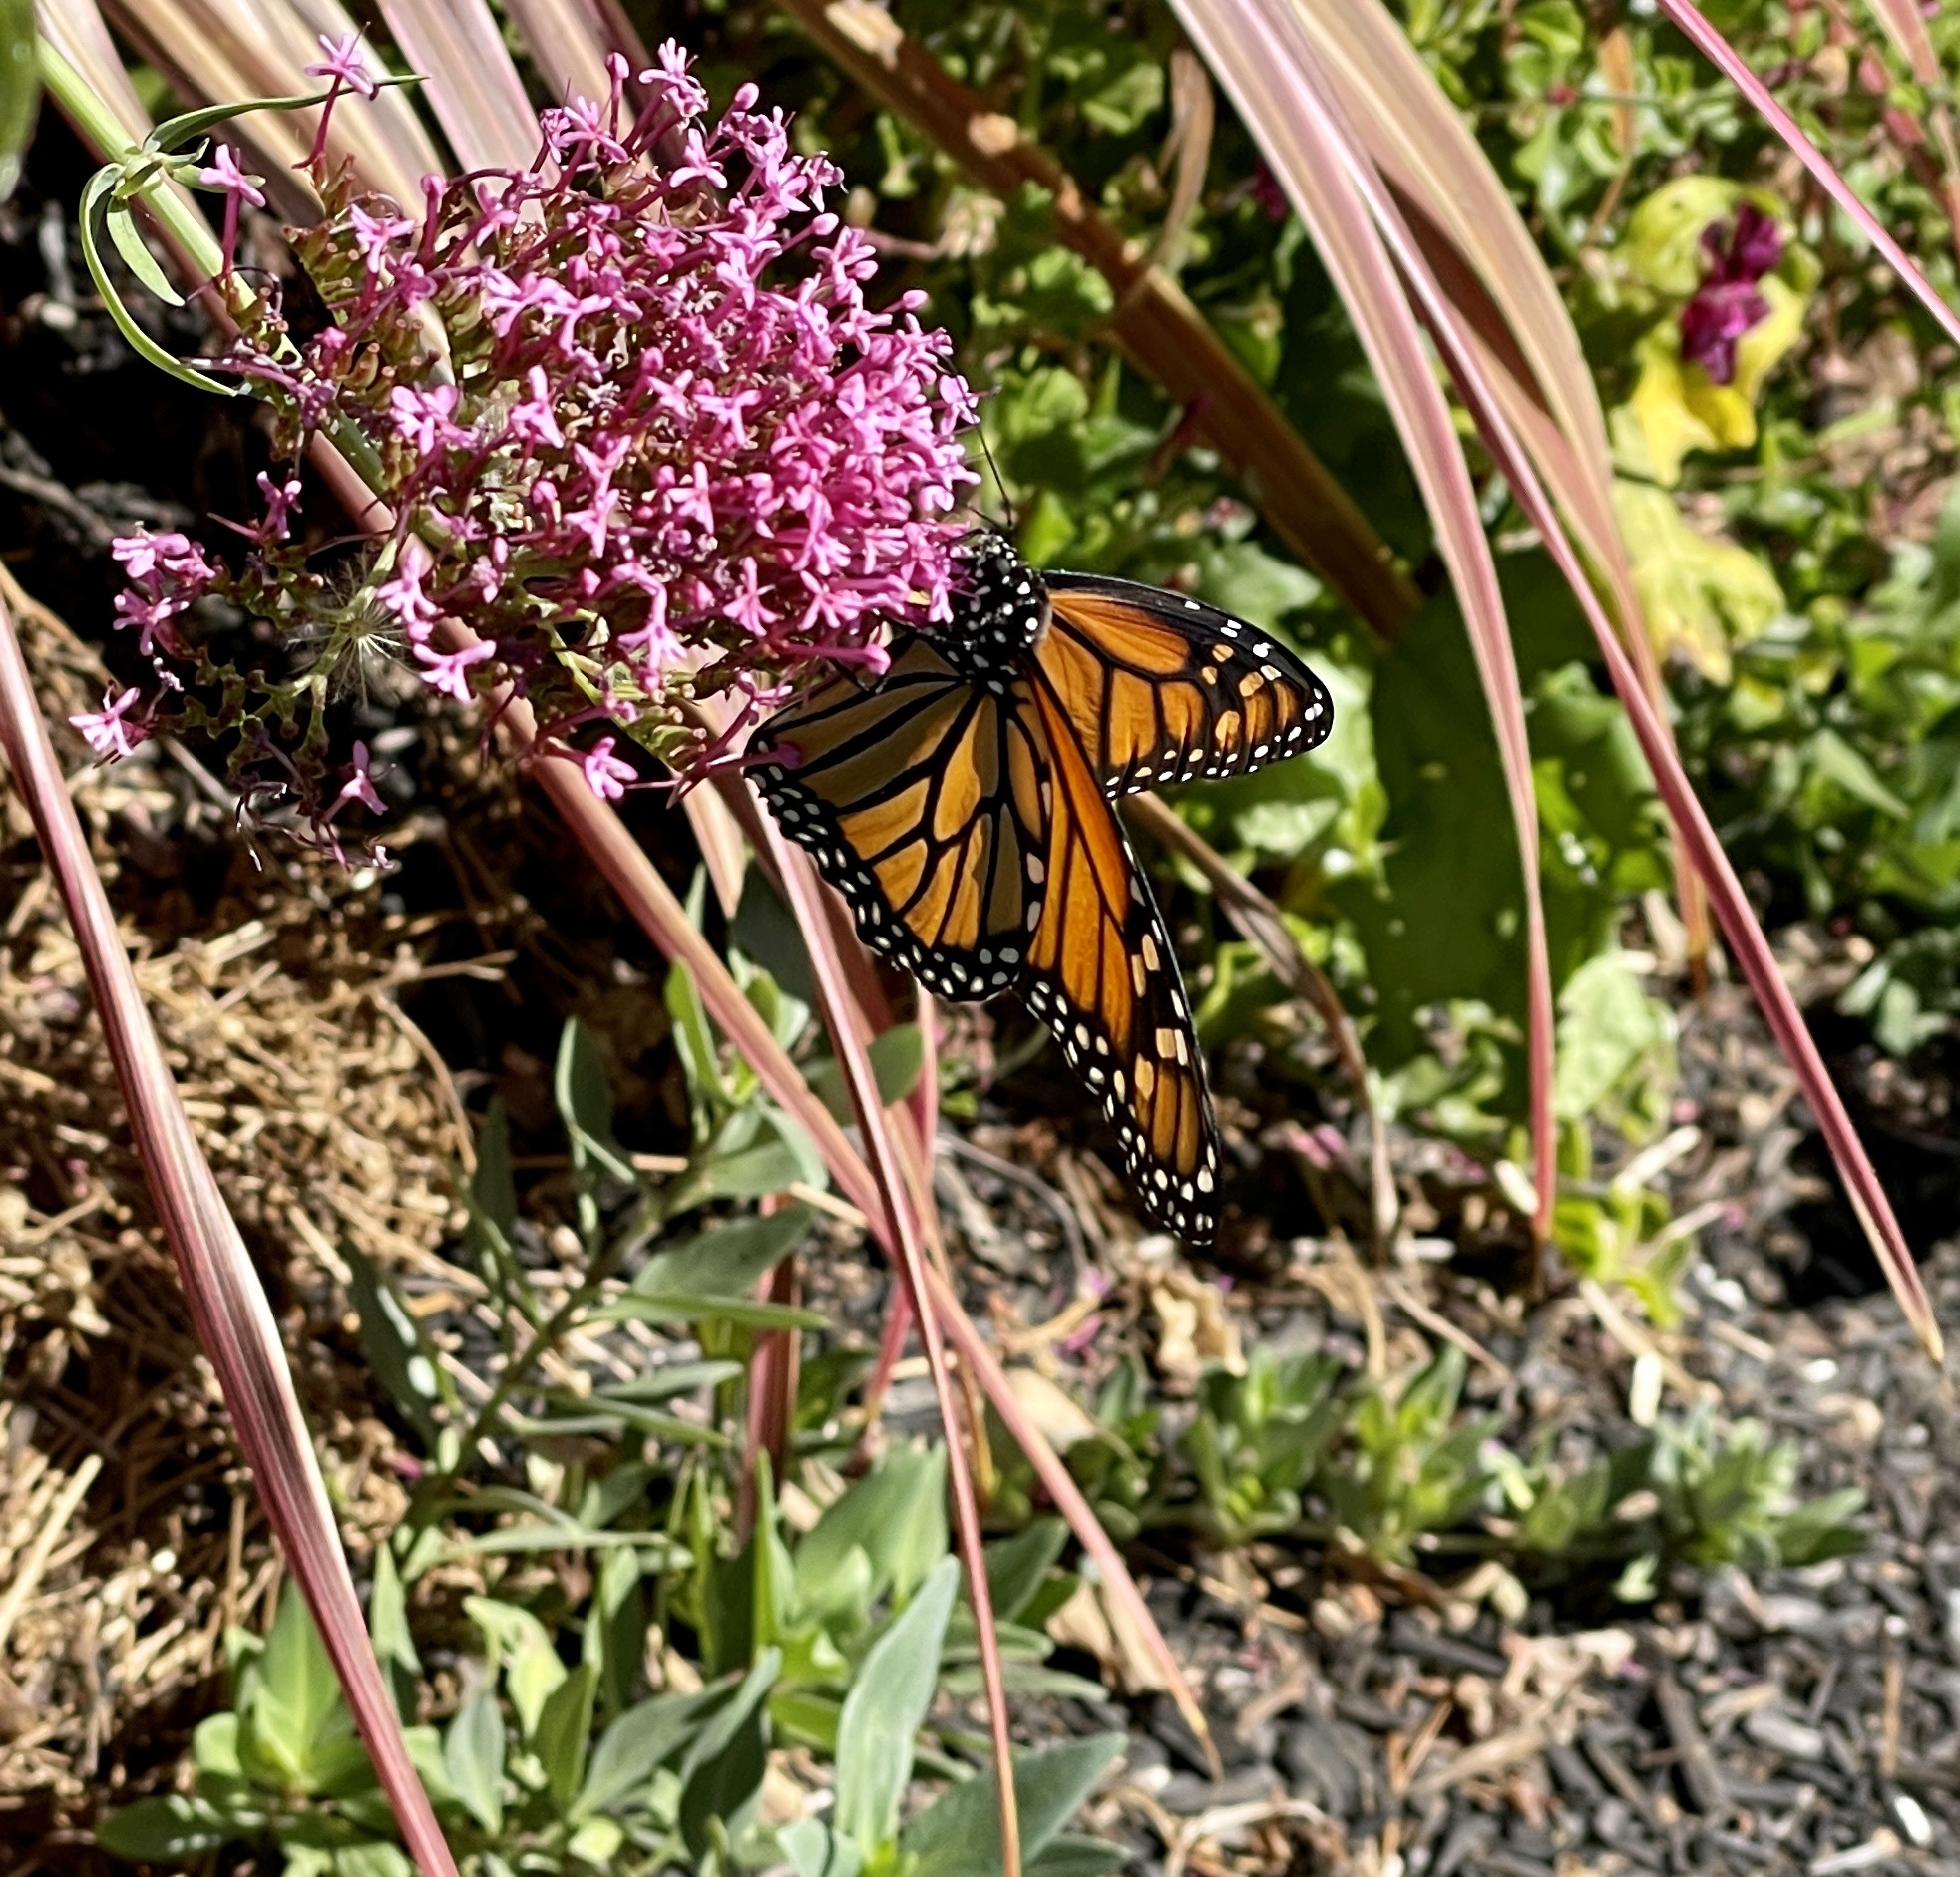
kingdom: Animalia
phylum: Arthropoda
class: Insecta
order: Lepidoptera
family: Nymphalidae
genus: Danaus
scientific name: Danaus plexippus
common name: Monarch
